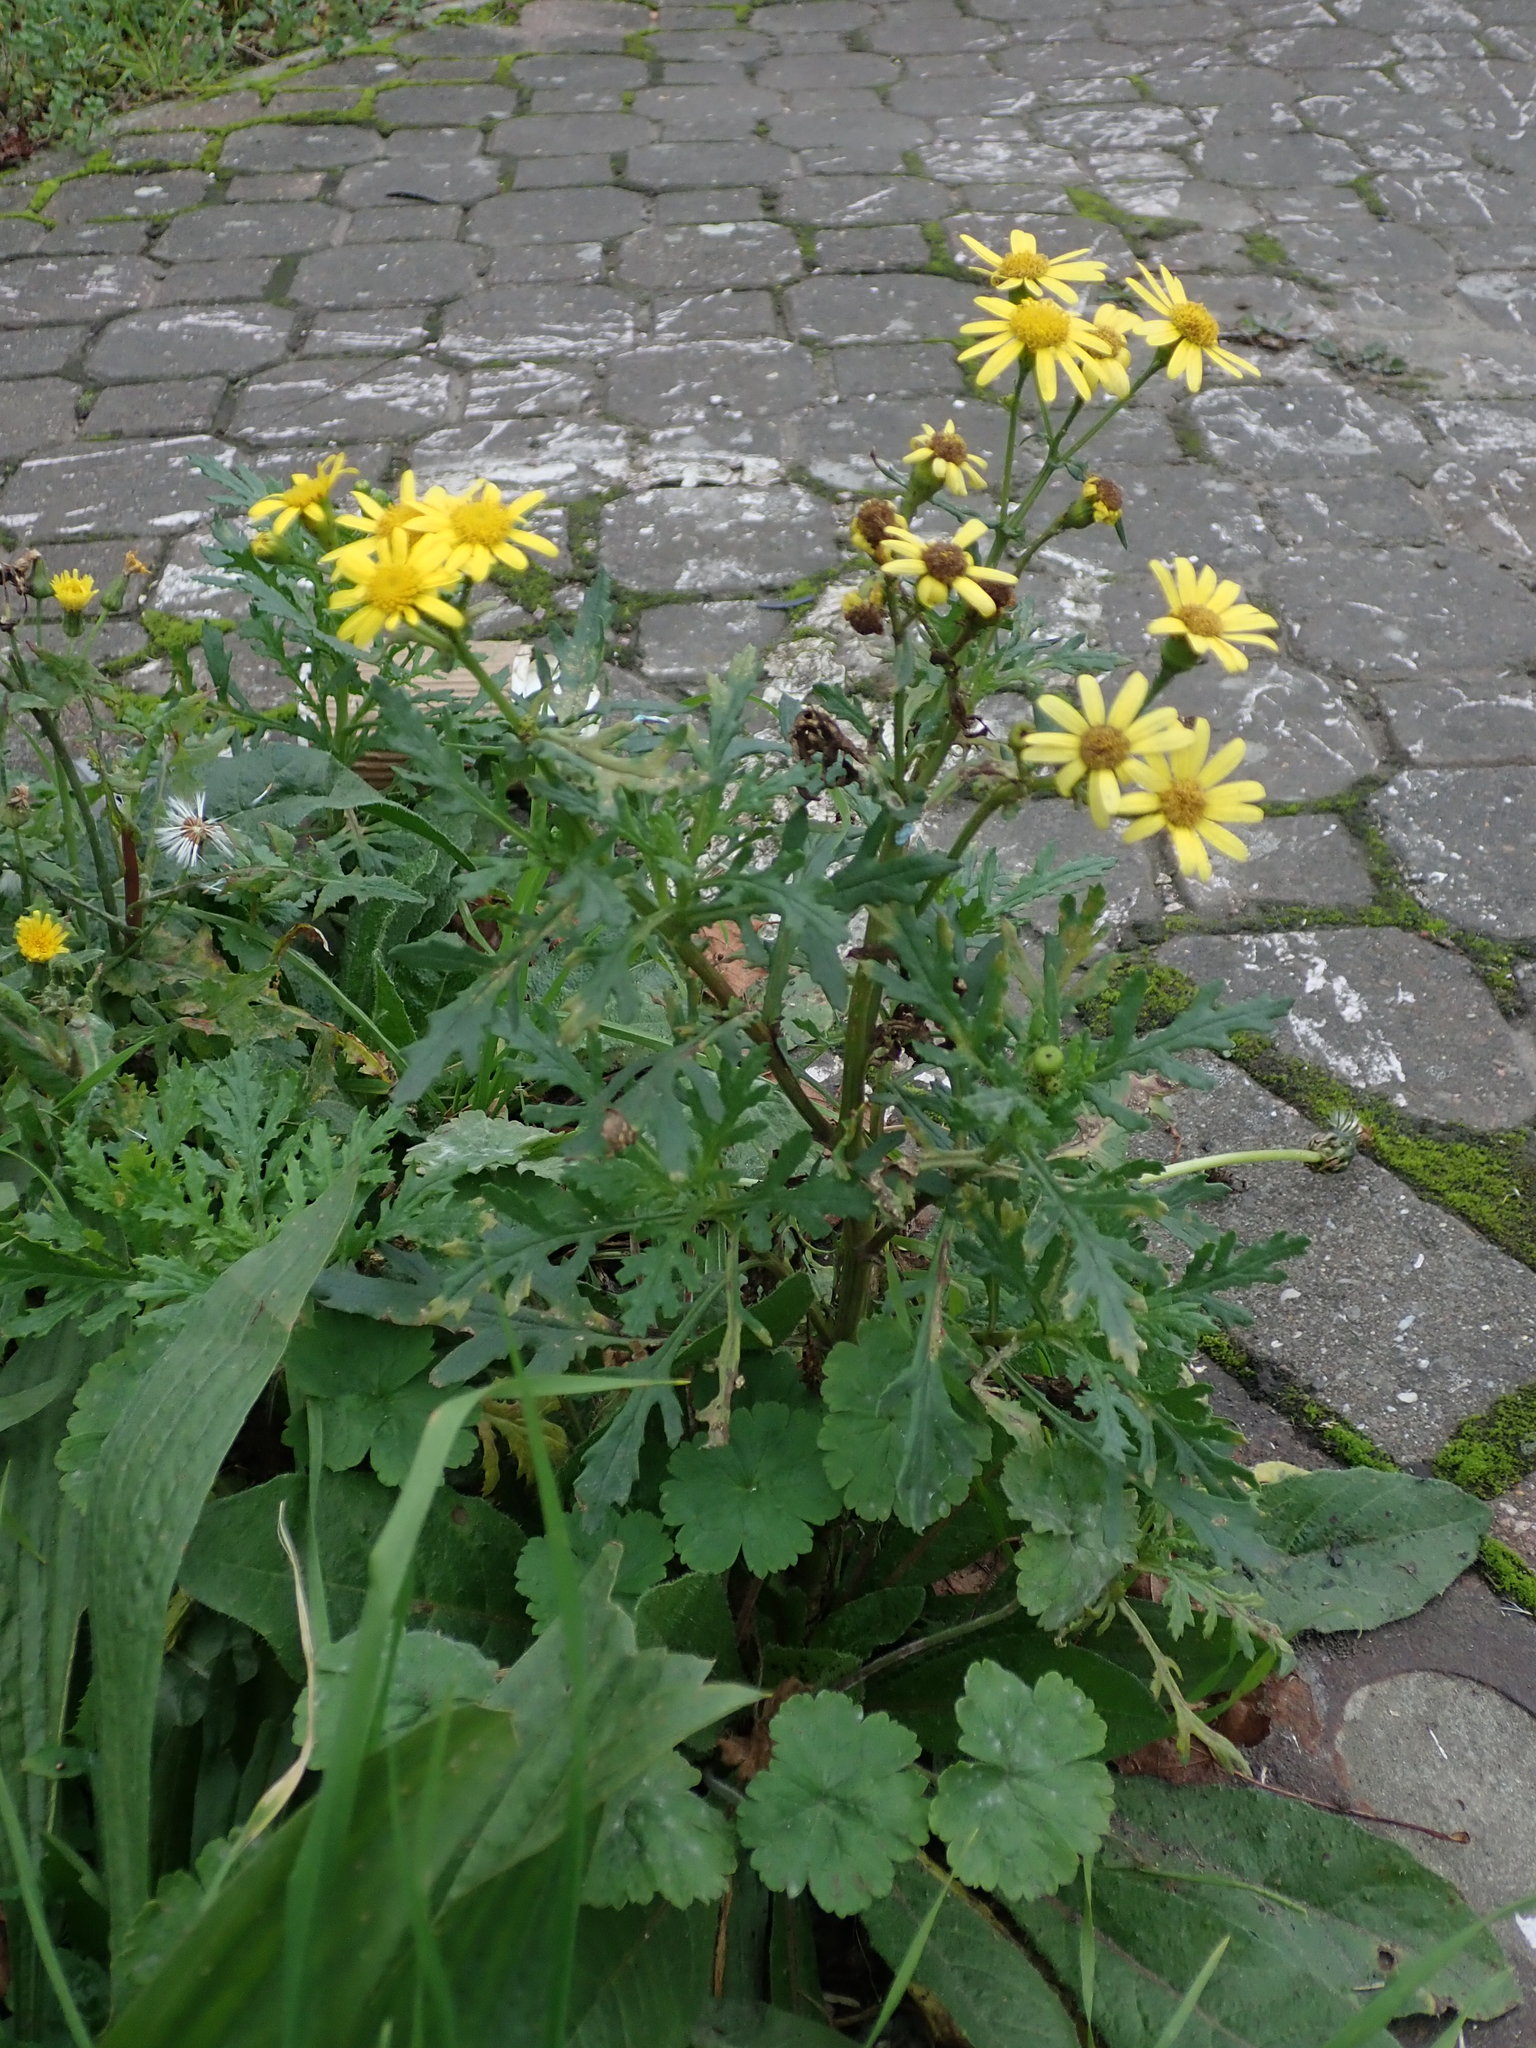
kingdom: Plantae
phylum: Tracheophyta
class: Magnoliopsida
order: Asterales
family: Asteraceae
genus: Senecio
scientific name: Senecio squalidus
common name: Oxford ragwort
